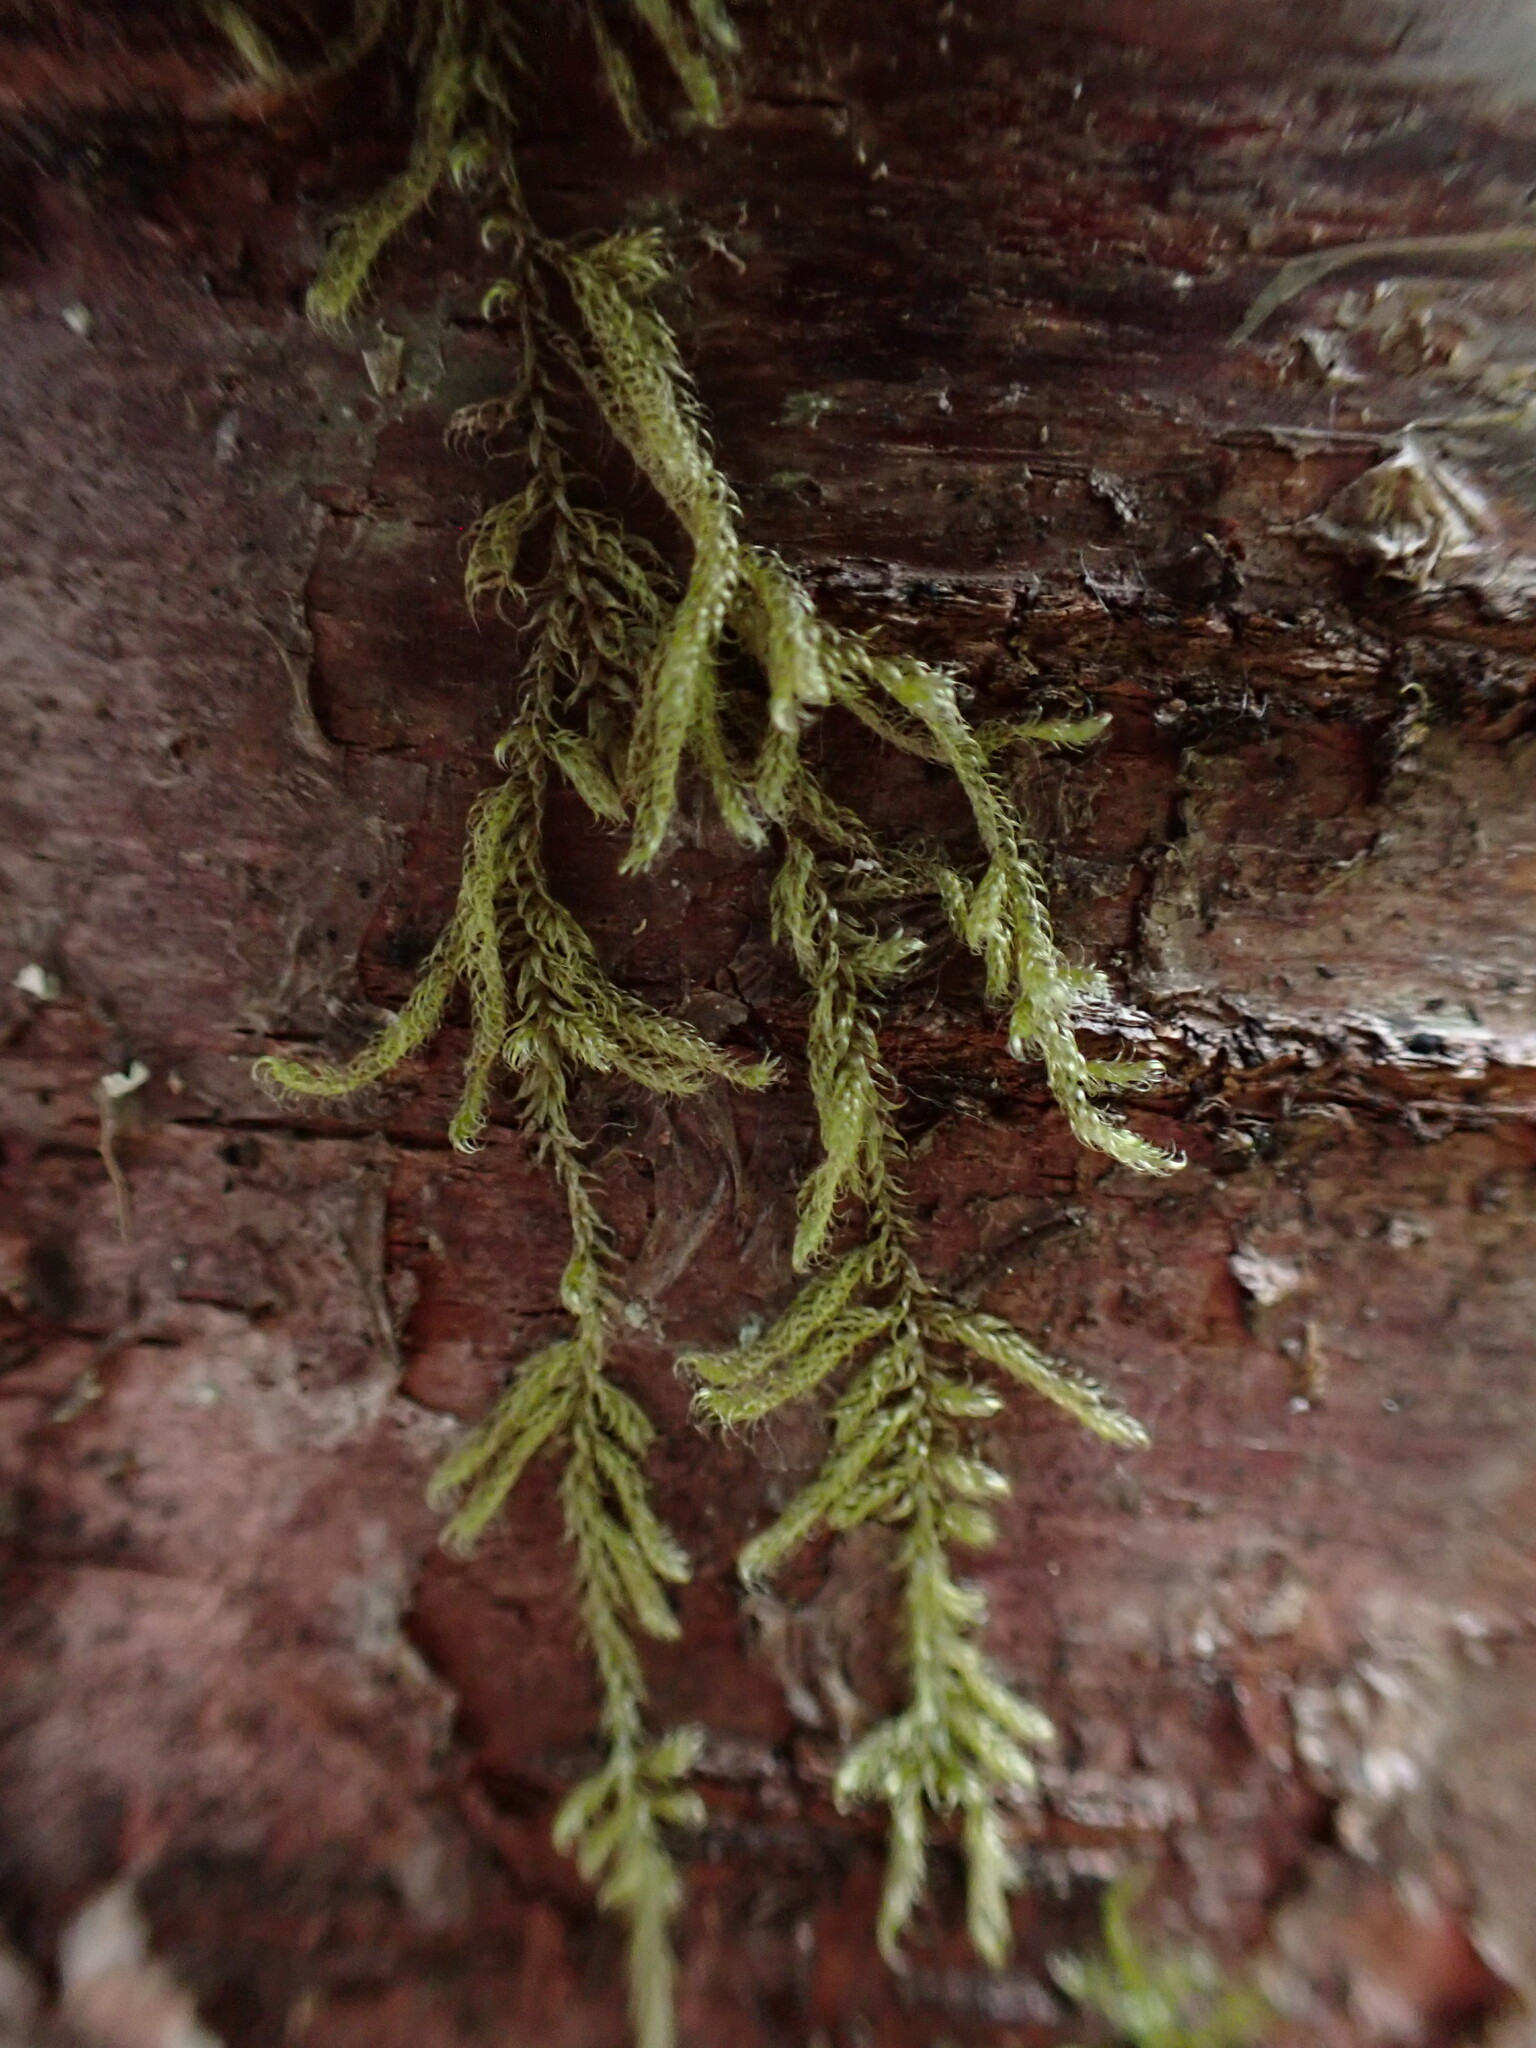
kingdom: Plantae
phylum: Bryophyta
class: Bryopsida
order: Hypnales
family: Pylaisiadelphaceae
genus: Trochophyllohypnum
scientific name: Trochophyllohypnum circinale
